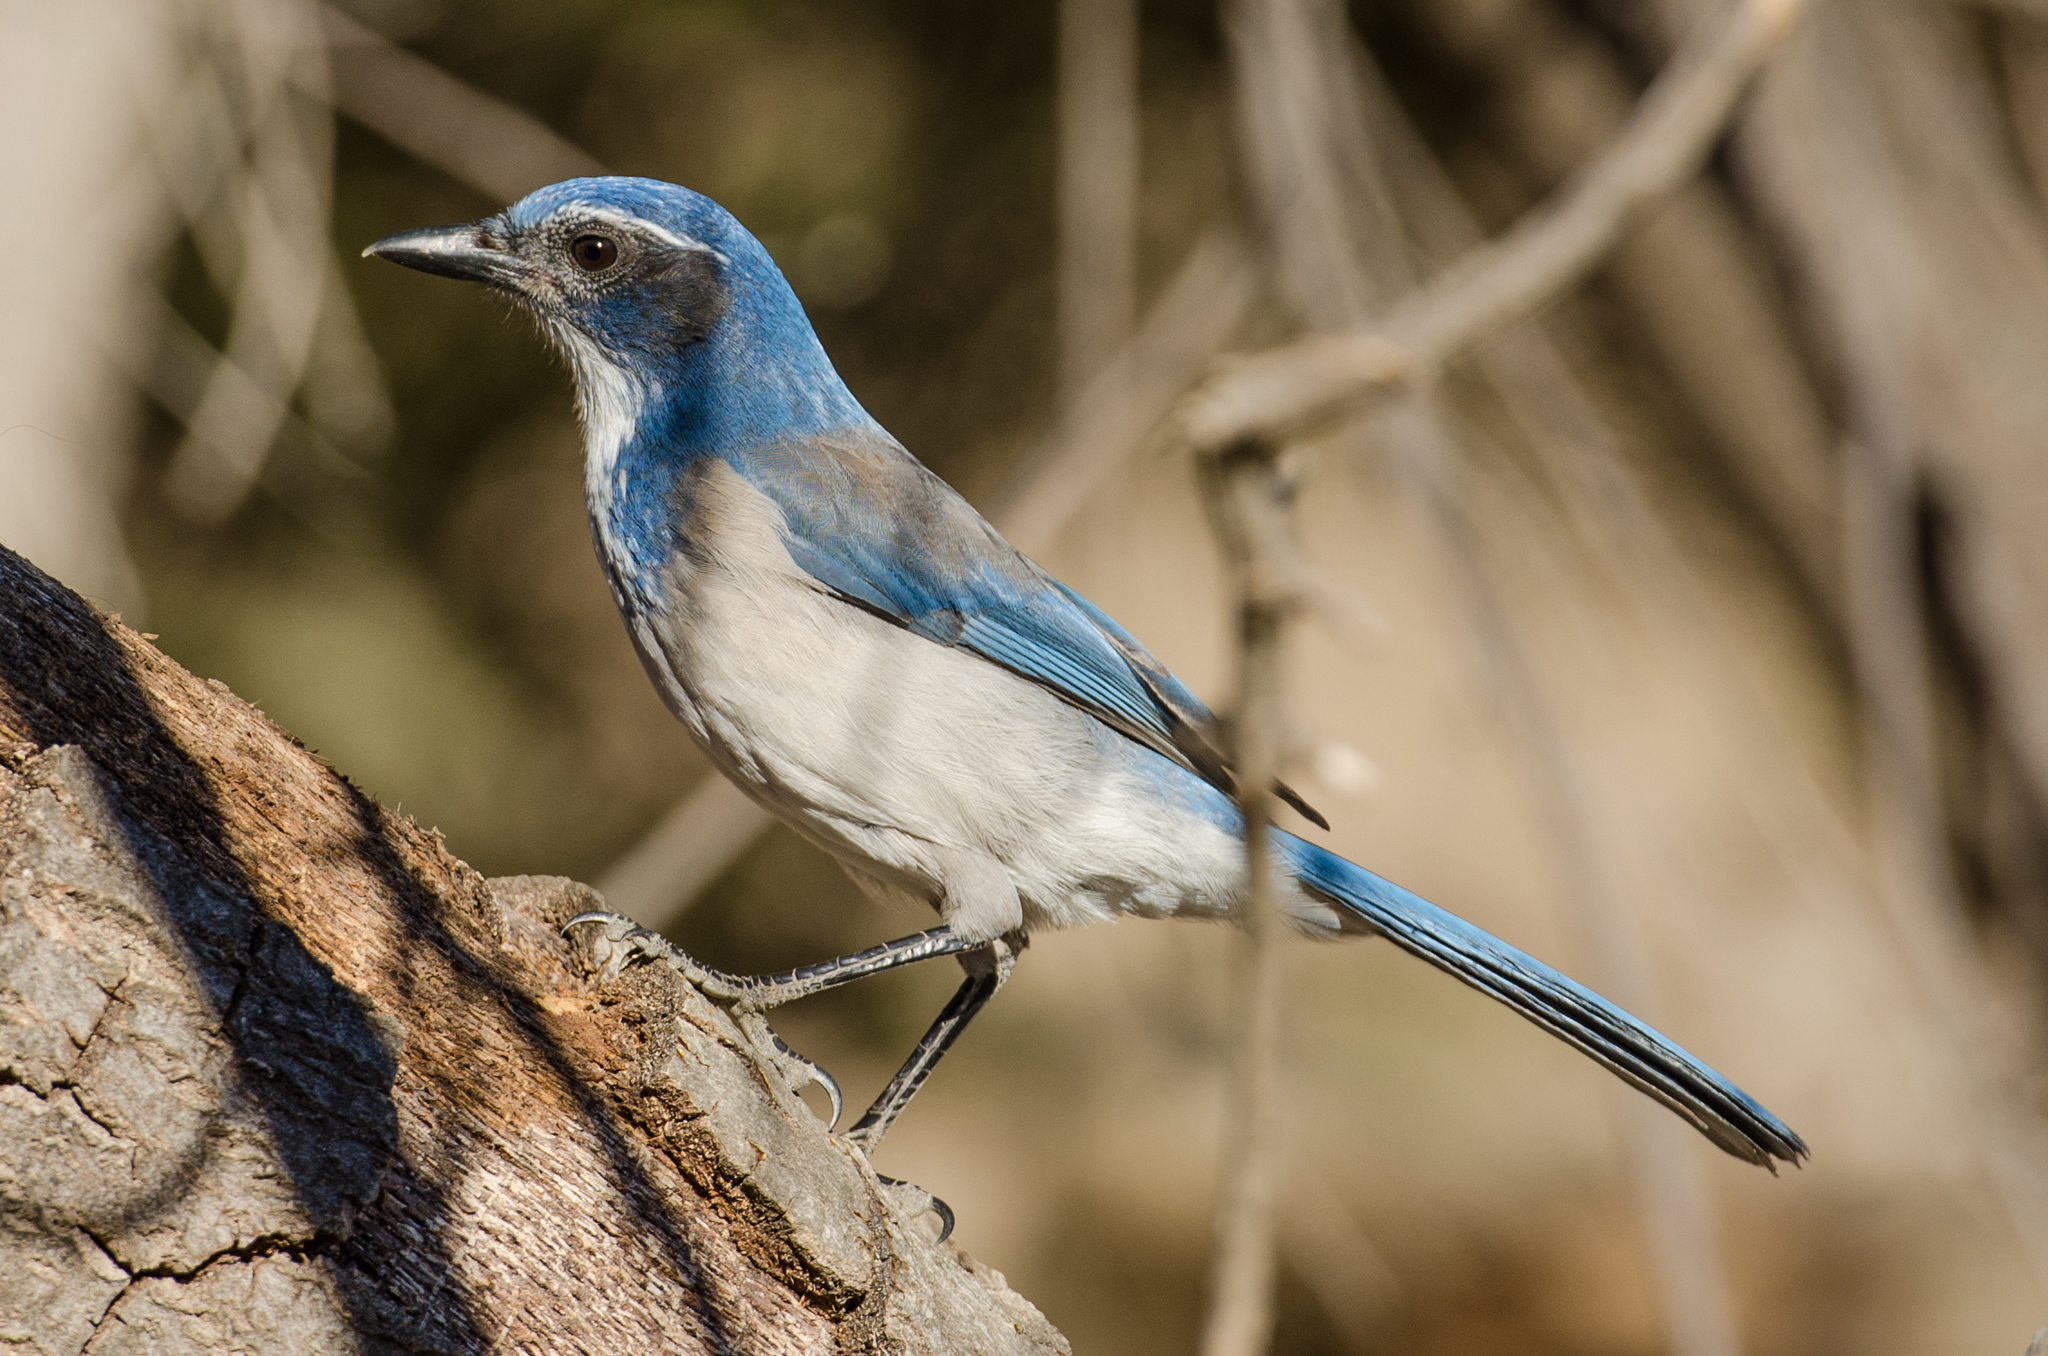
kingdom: Animalia
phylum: Chordata
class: Aves
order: Passeriformes
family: Corvidae
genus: Aphelocoma
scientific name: Aphelocoma californica
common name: California scrub-jay
